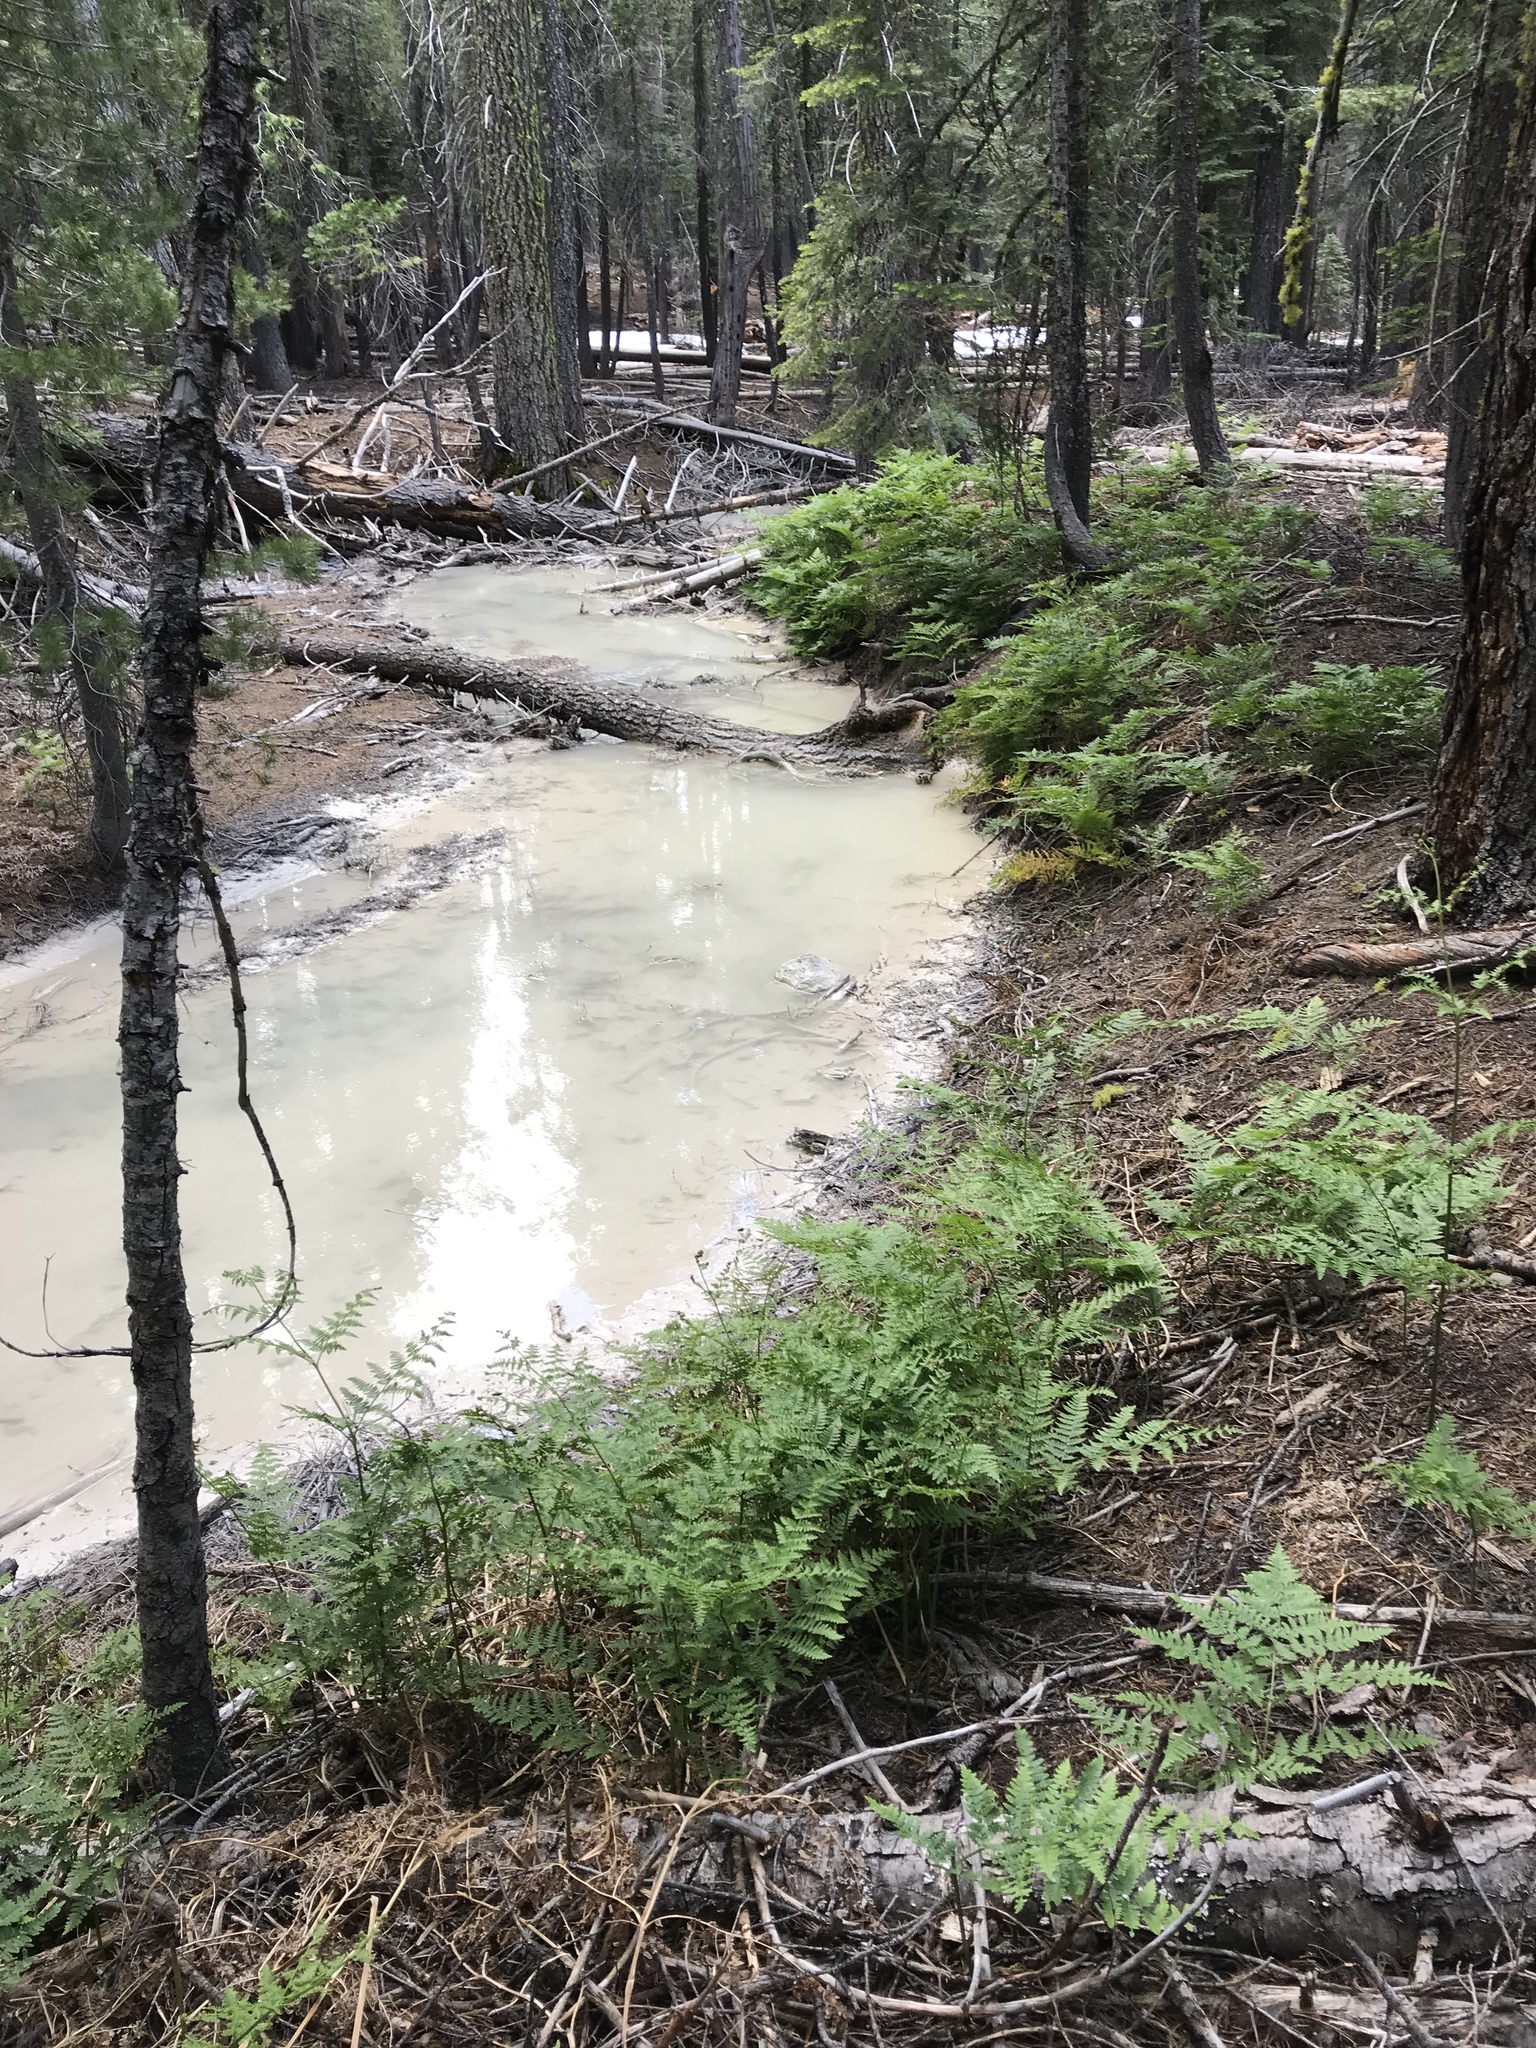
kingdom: Plantae
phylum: Tracheophyta
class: Polypodiopsida
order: Polypodiales
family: Dennstaedtiaceae
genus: Pteridium
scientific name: Pteridium aquilinum
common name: Bracken
